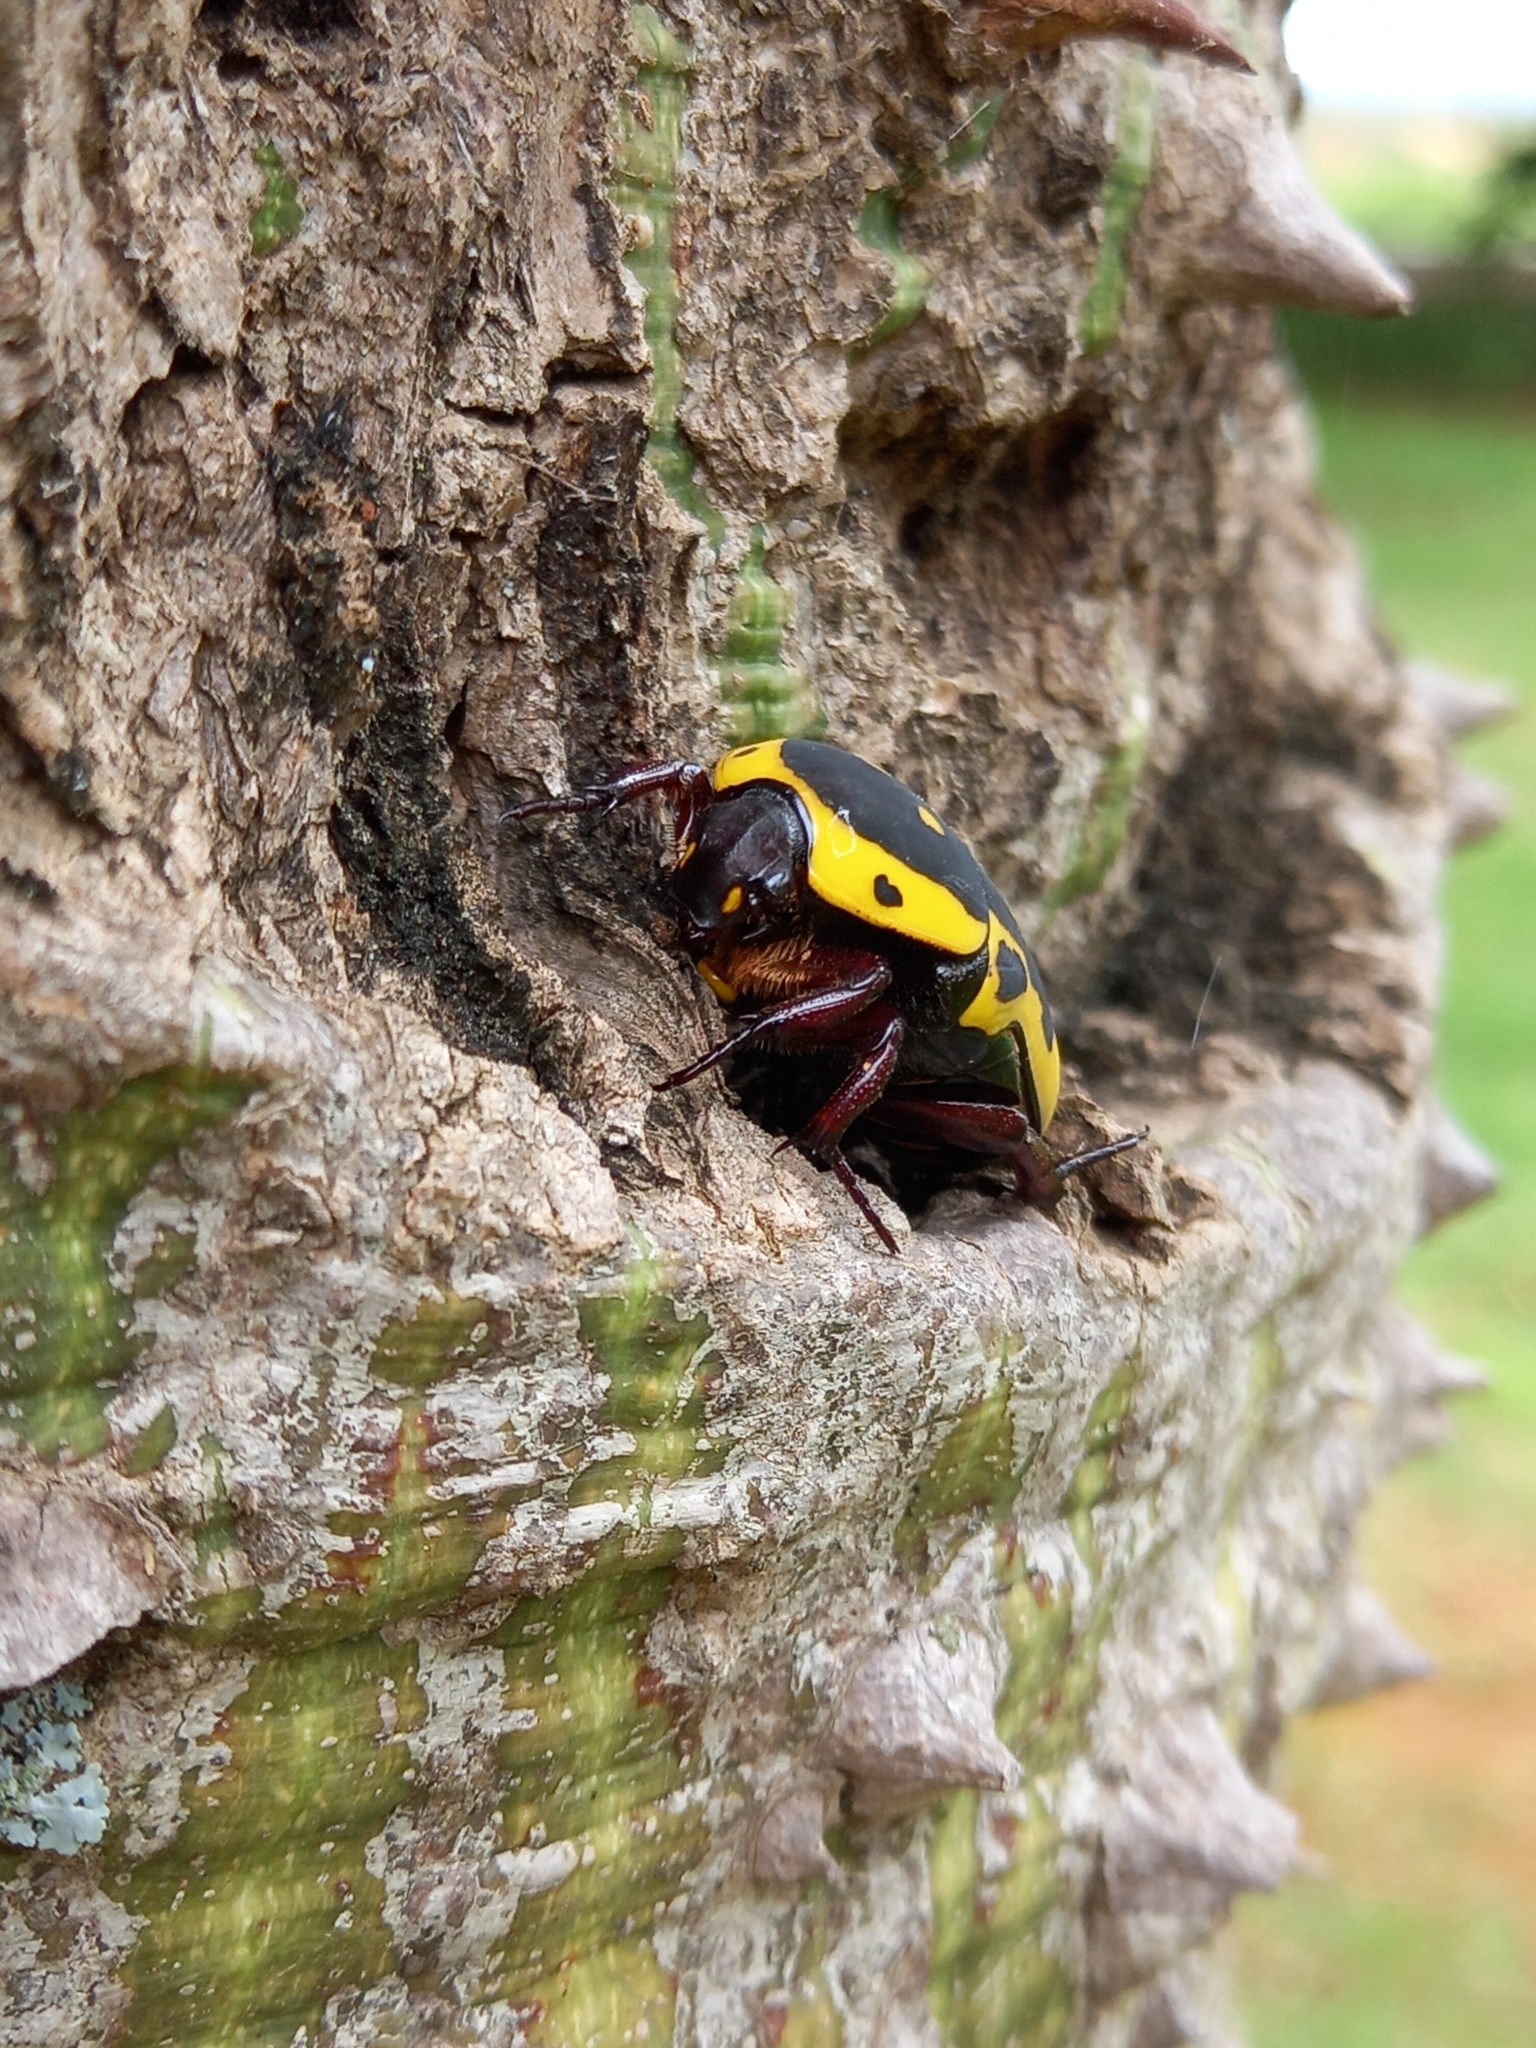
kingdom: Animalia
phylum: Arthropoda
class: Insecta
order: Coleoptera
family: Scarabaeidae
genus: Pachnoda
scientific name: Pachnoda sinuata
